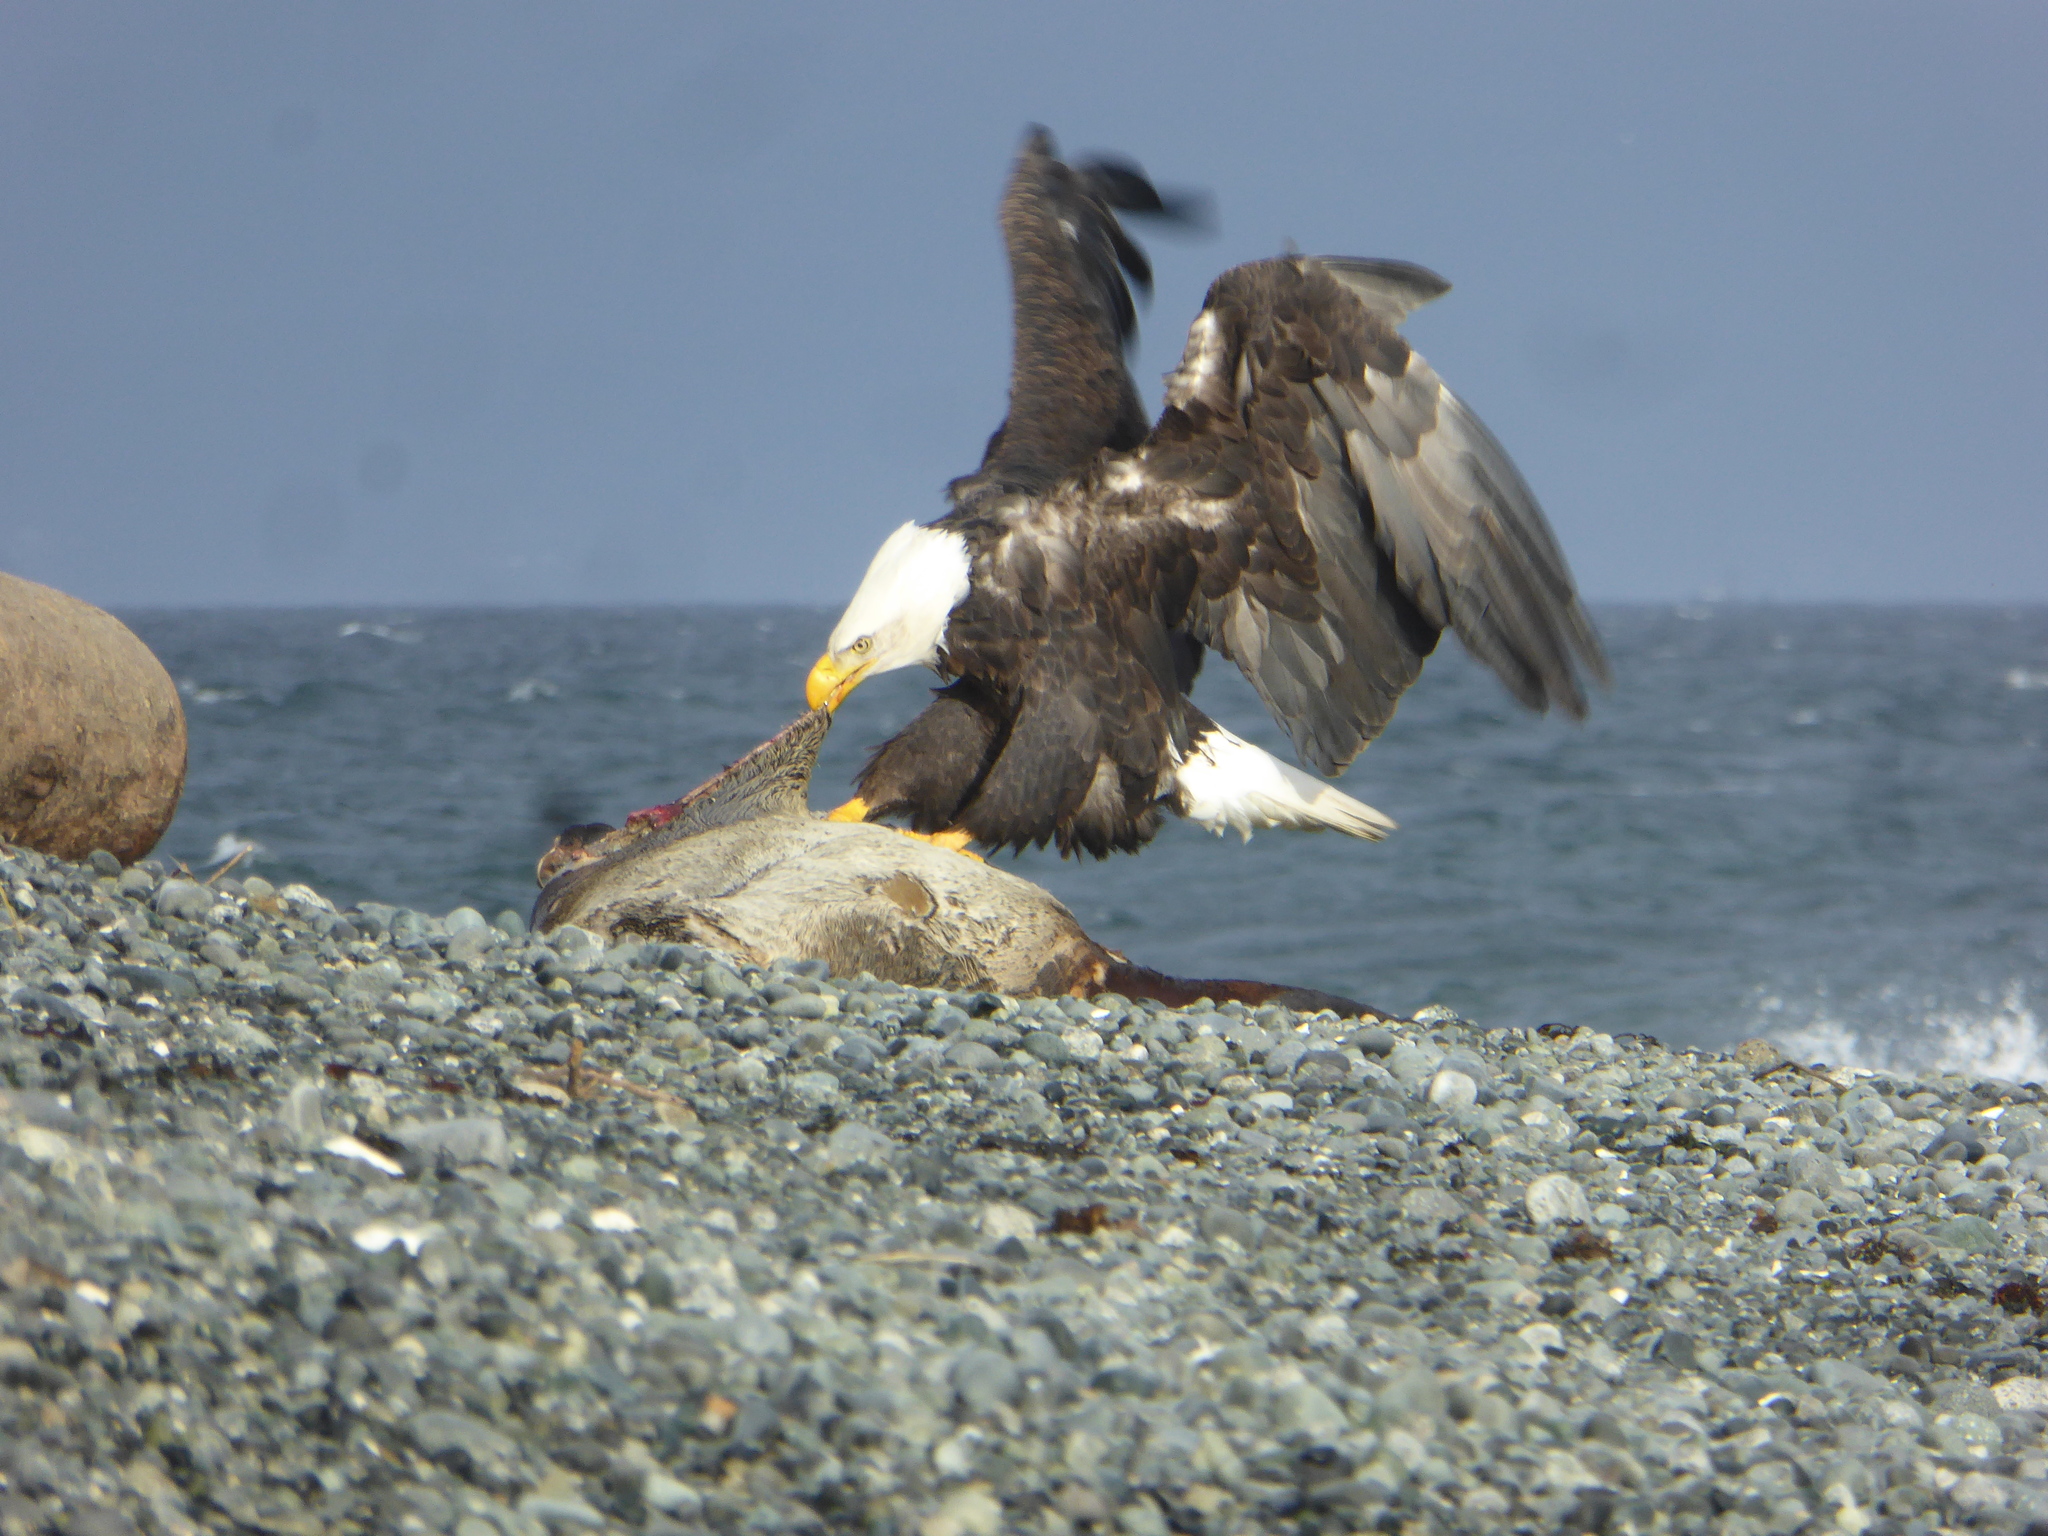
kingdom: Animalia
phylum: Chordata
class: Aves
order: Accipitriformes
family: Accipitridae
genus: Haliaeetus
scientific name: Haliaeetus leucocephalus
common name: Bald eagle
